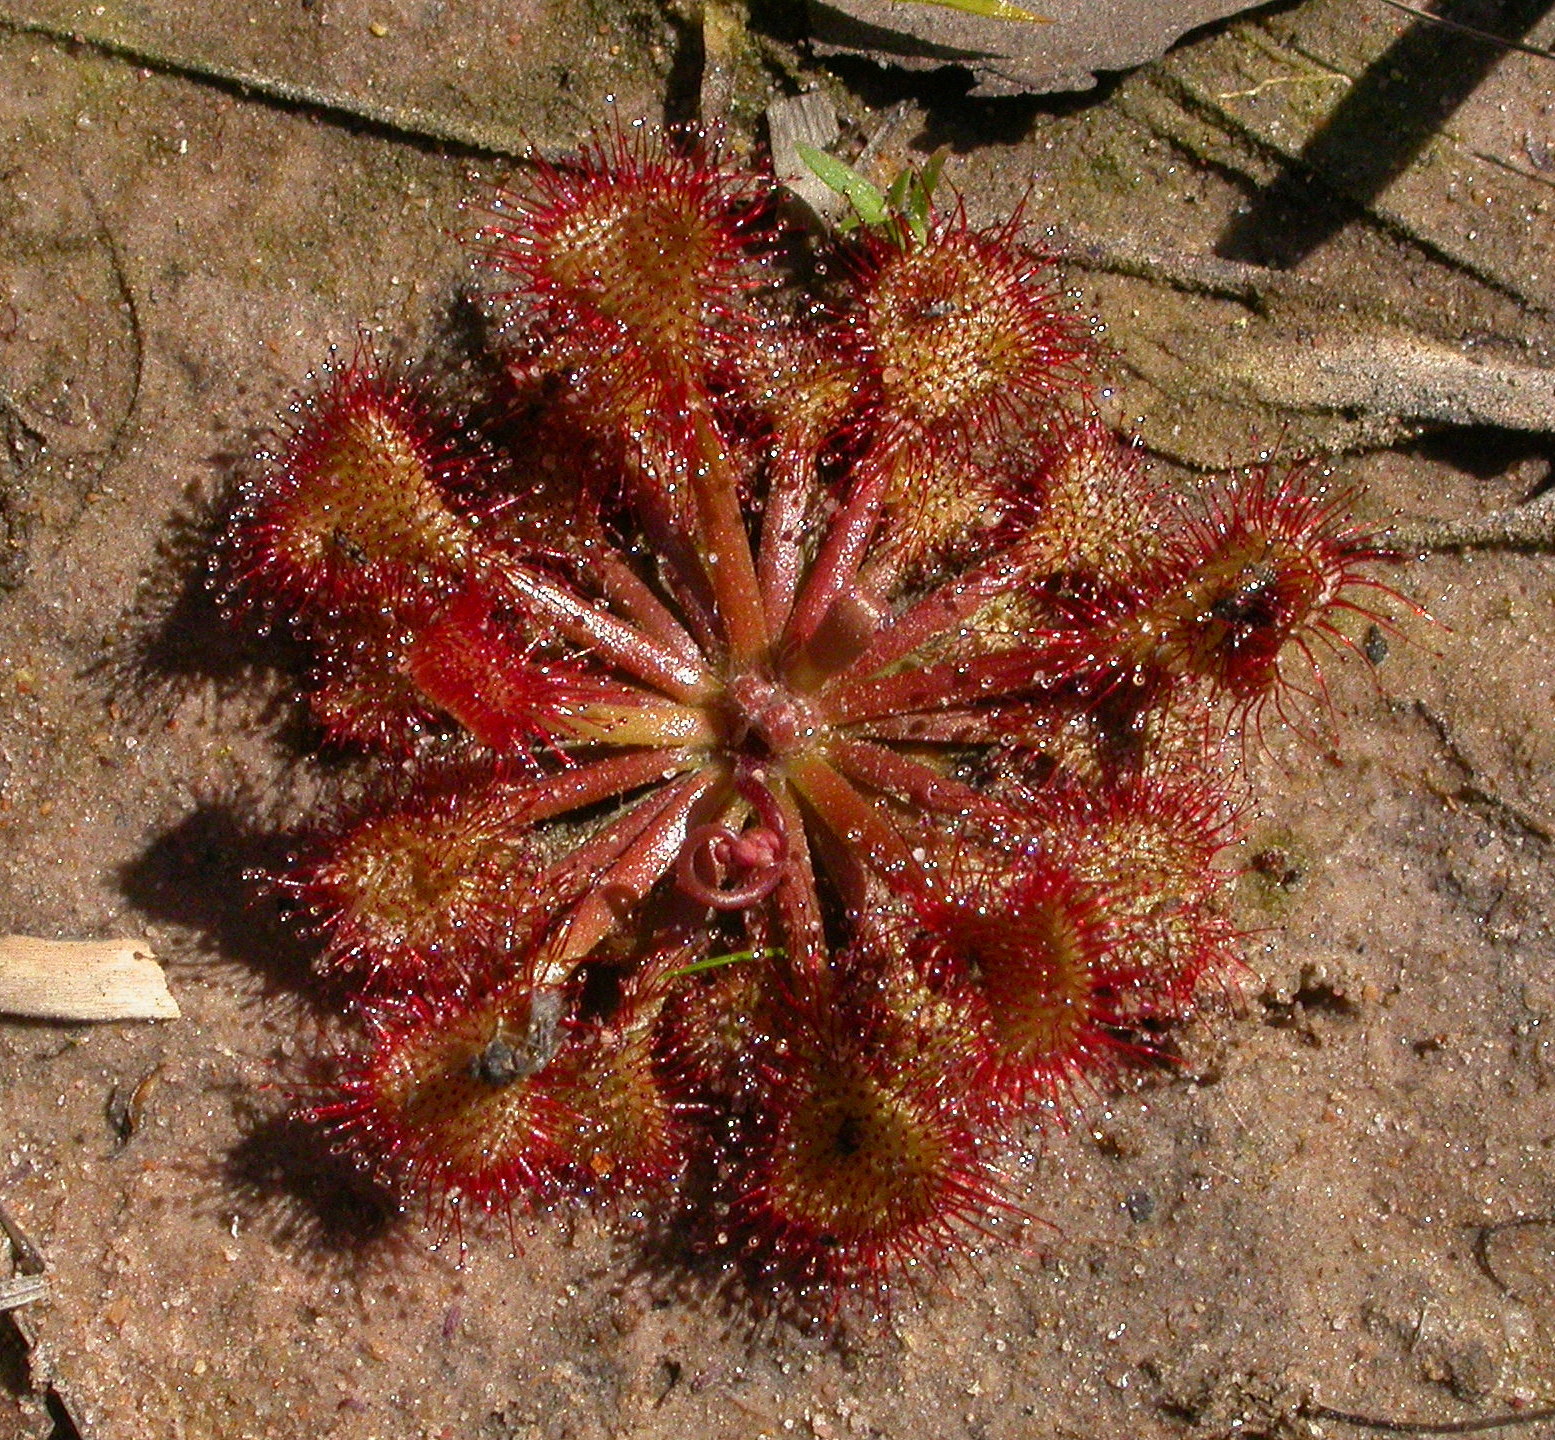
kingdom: Plantae
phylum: Tracheophyta
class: Magnoliopsida
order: Caryophyllales
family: Droseraceae
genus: Drosera
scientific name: Drosera capillaris
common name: Pink sundew
